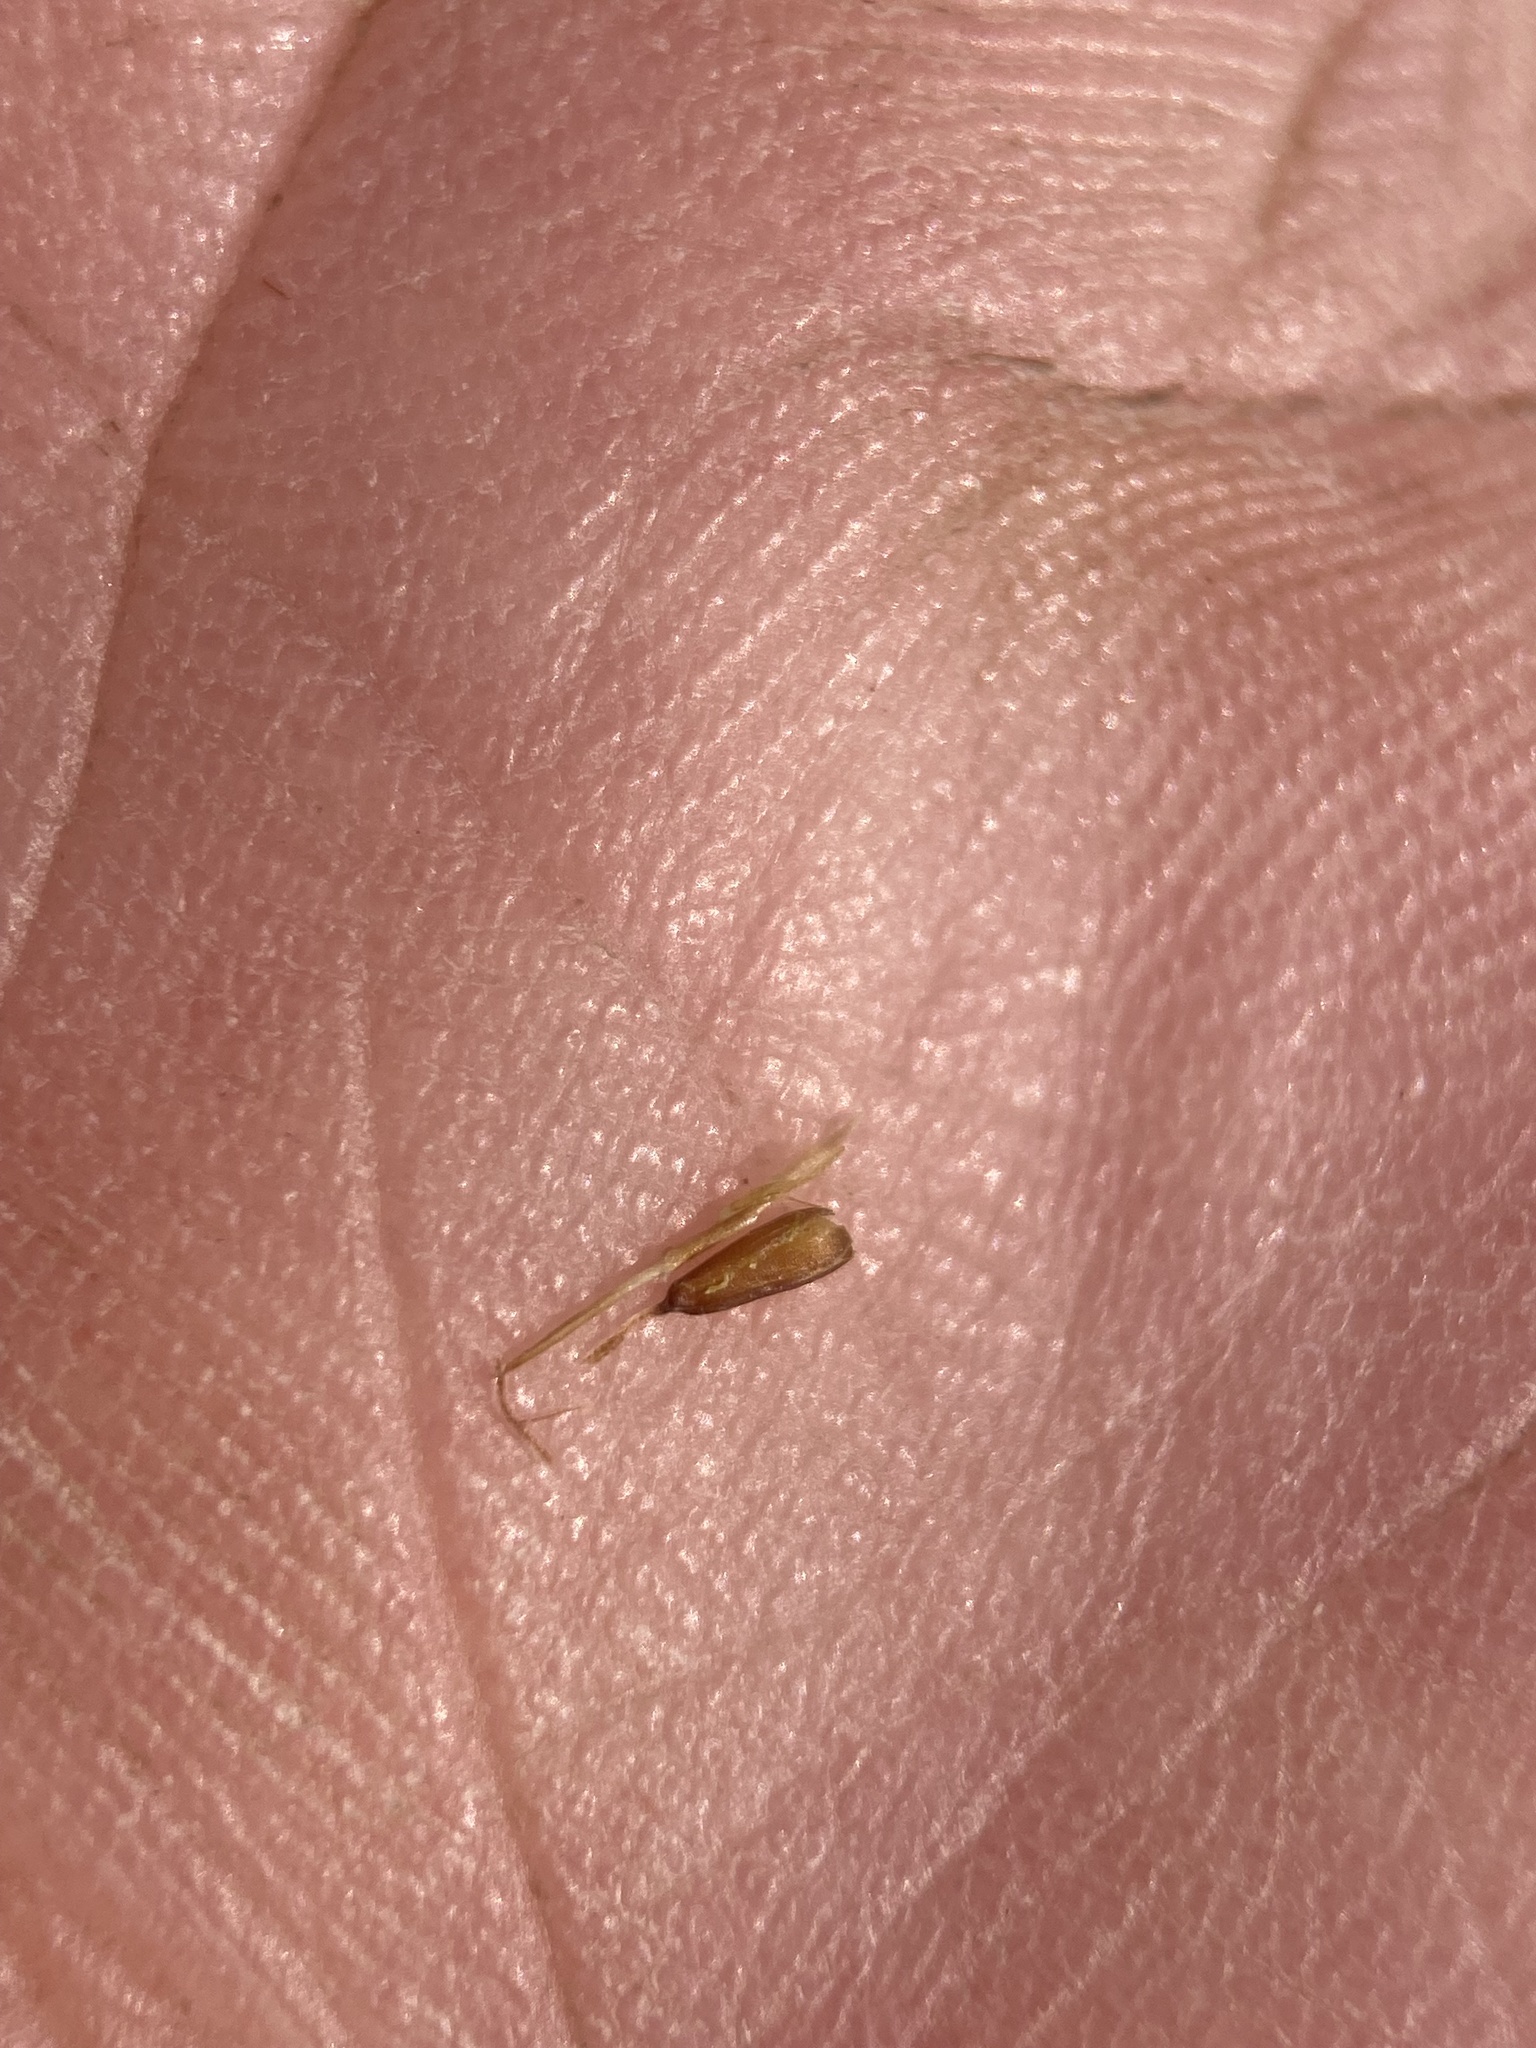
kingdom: Plantae
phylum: Tracheophyta
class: Liliopsida
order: Poales
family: Cyperaceae
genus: Carex
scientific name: Carex microglochin
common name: Bristle sedge
